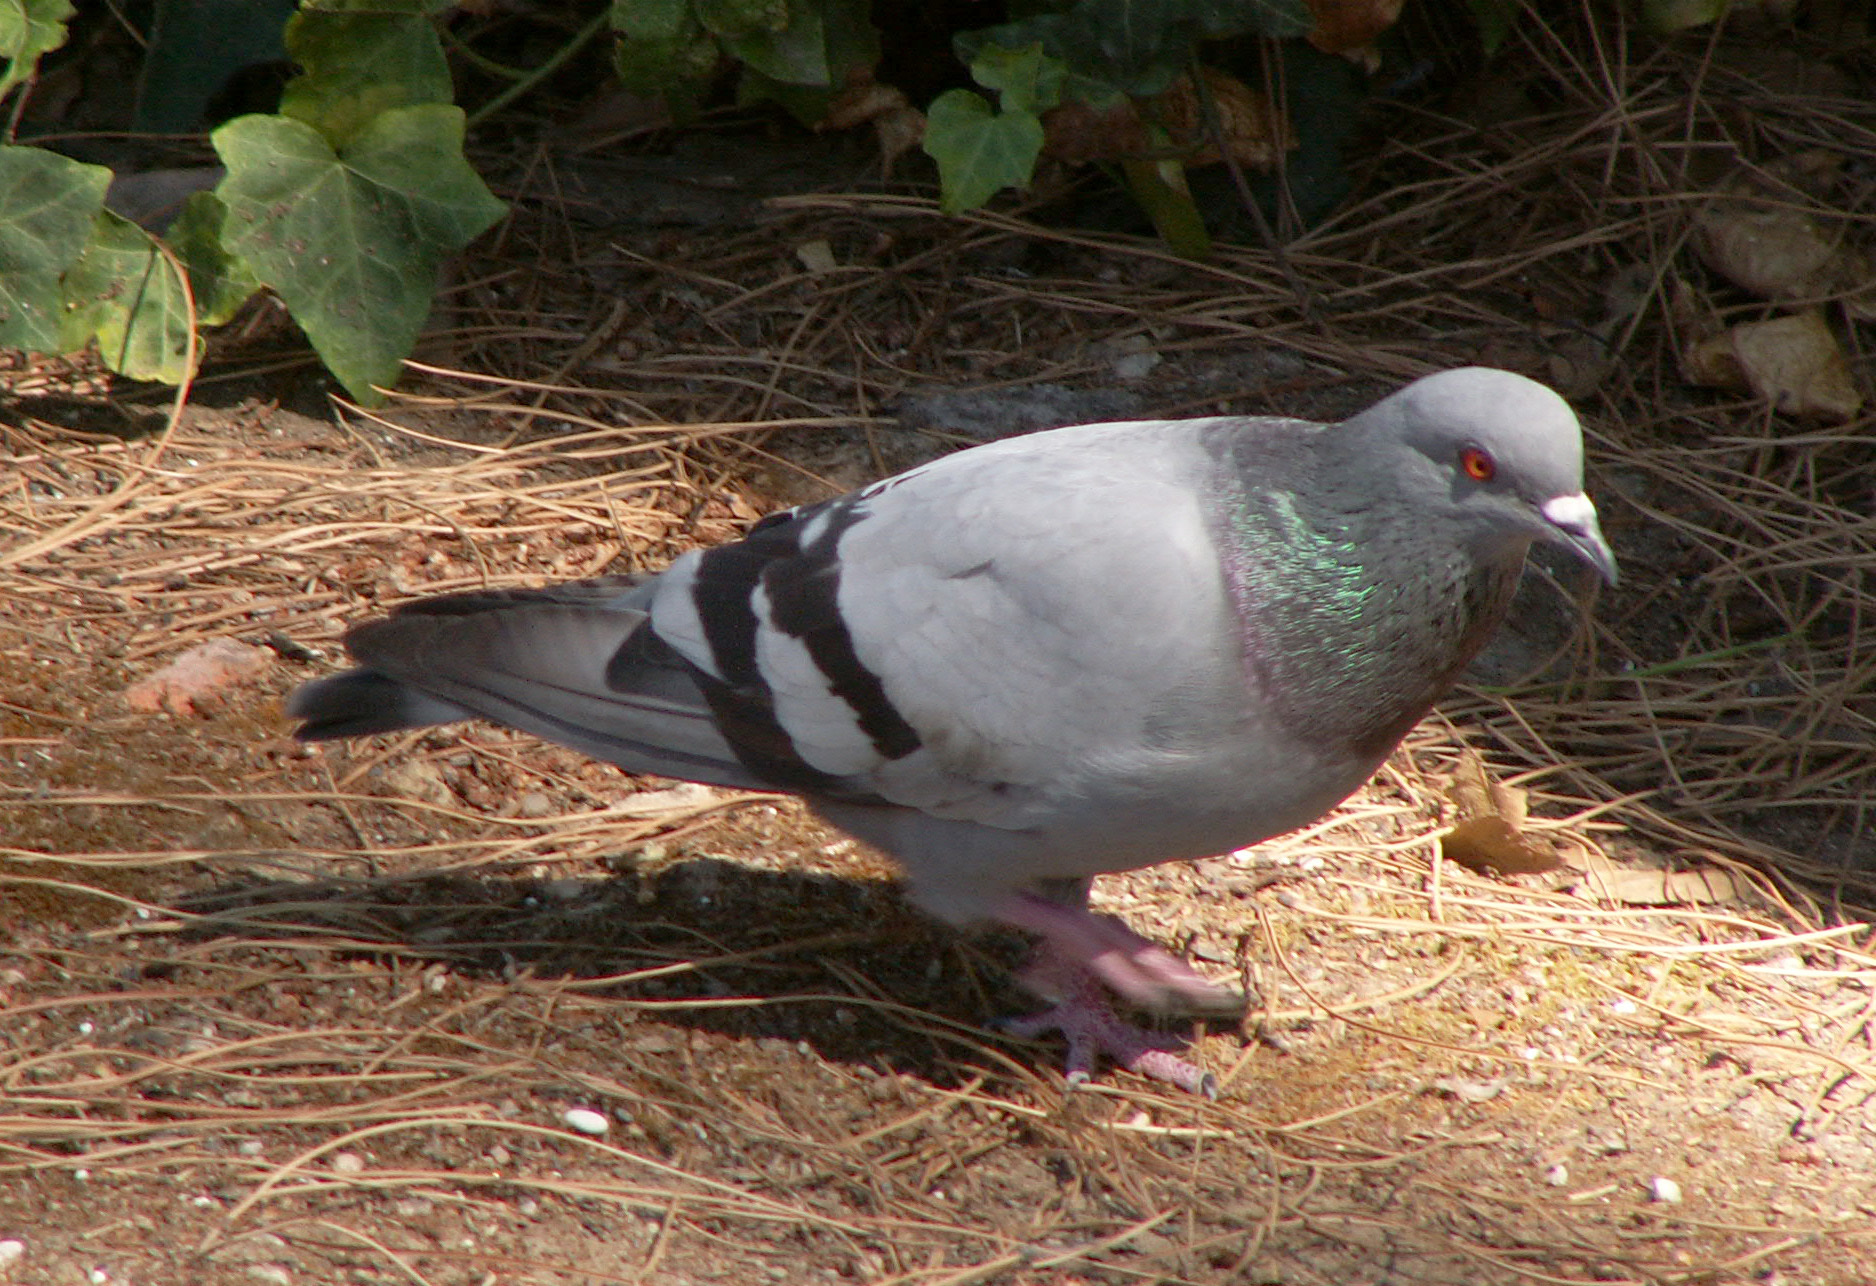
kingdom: Animalia
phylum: Chordata
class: Aves
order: Columbiformes
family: Columbidae
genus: Columba
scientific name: Columba livia
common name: Rock pigeon
